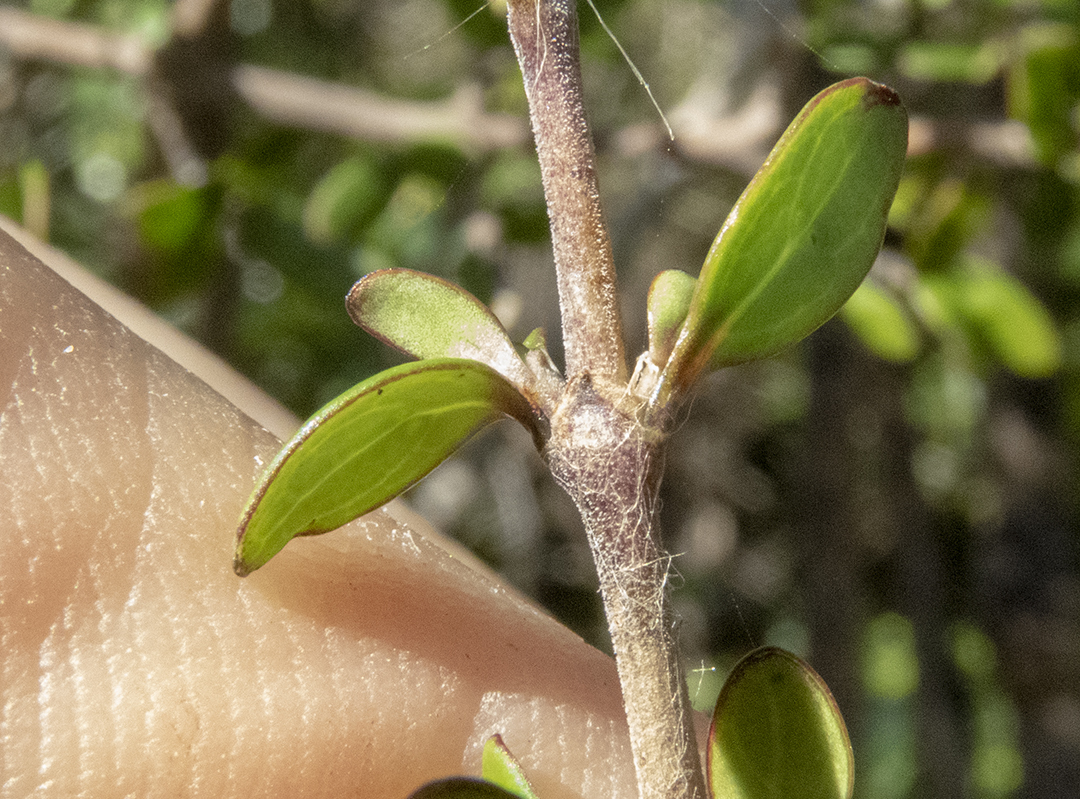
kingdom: Plantae
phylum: Tracheophyta
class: Magnoliopsida
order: Gentianales
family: Rubiaceae
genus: Coprosma
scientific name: Coprosma propinqua
